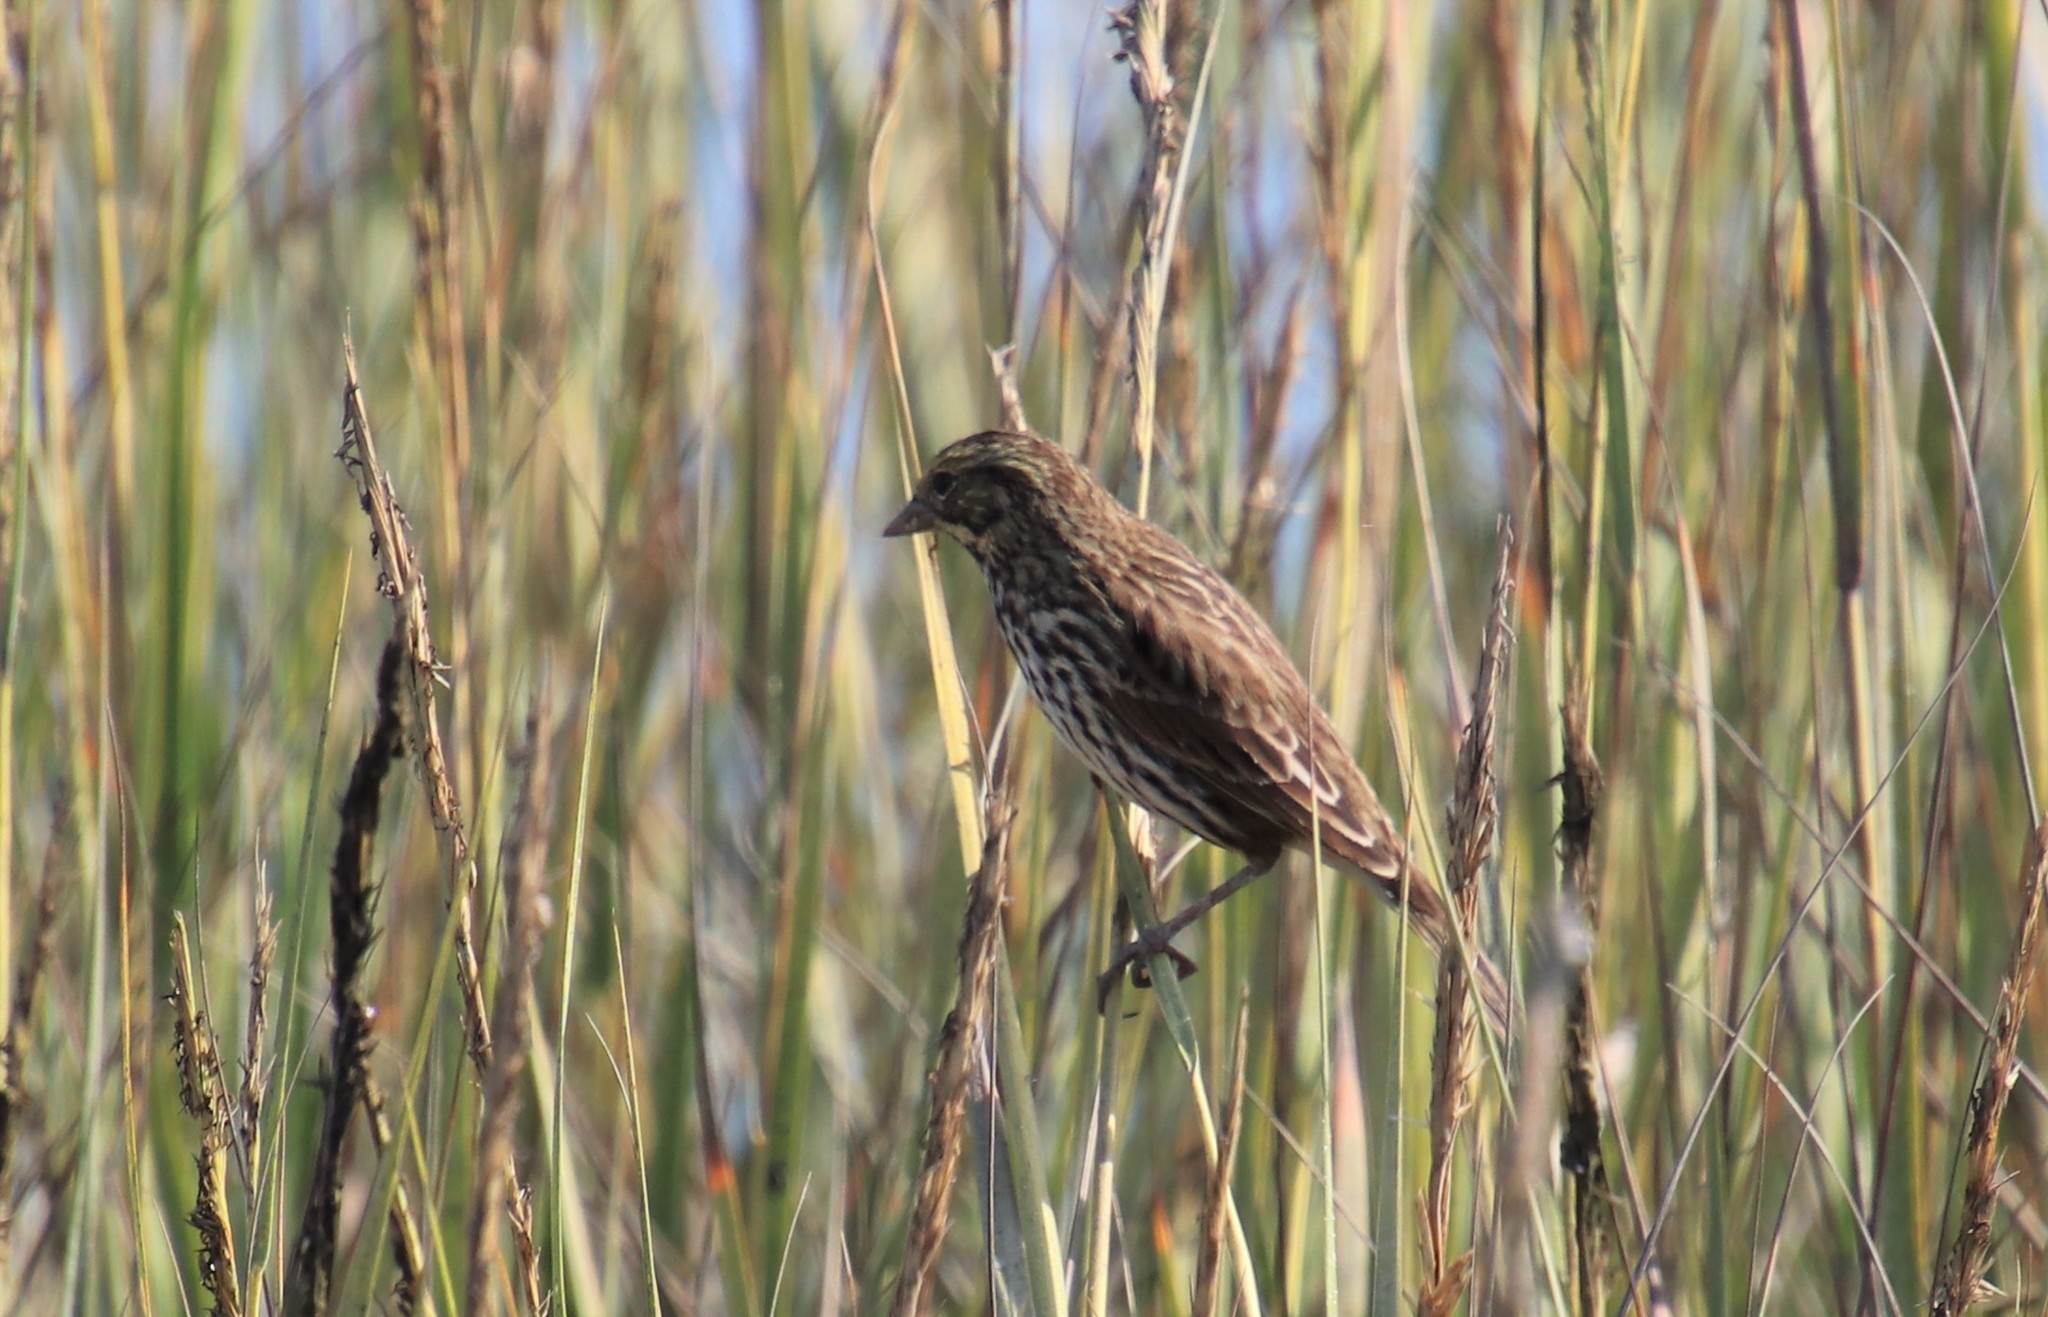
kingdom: Animalia
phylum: Chordata
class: Aves
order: Passeriformes
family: Passerellidae
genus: Passerculus
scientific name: Passerculus sandwichensis
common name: Savannah sparrow
